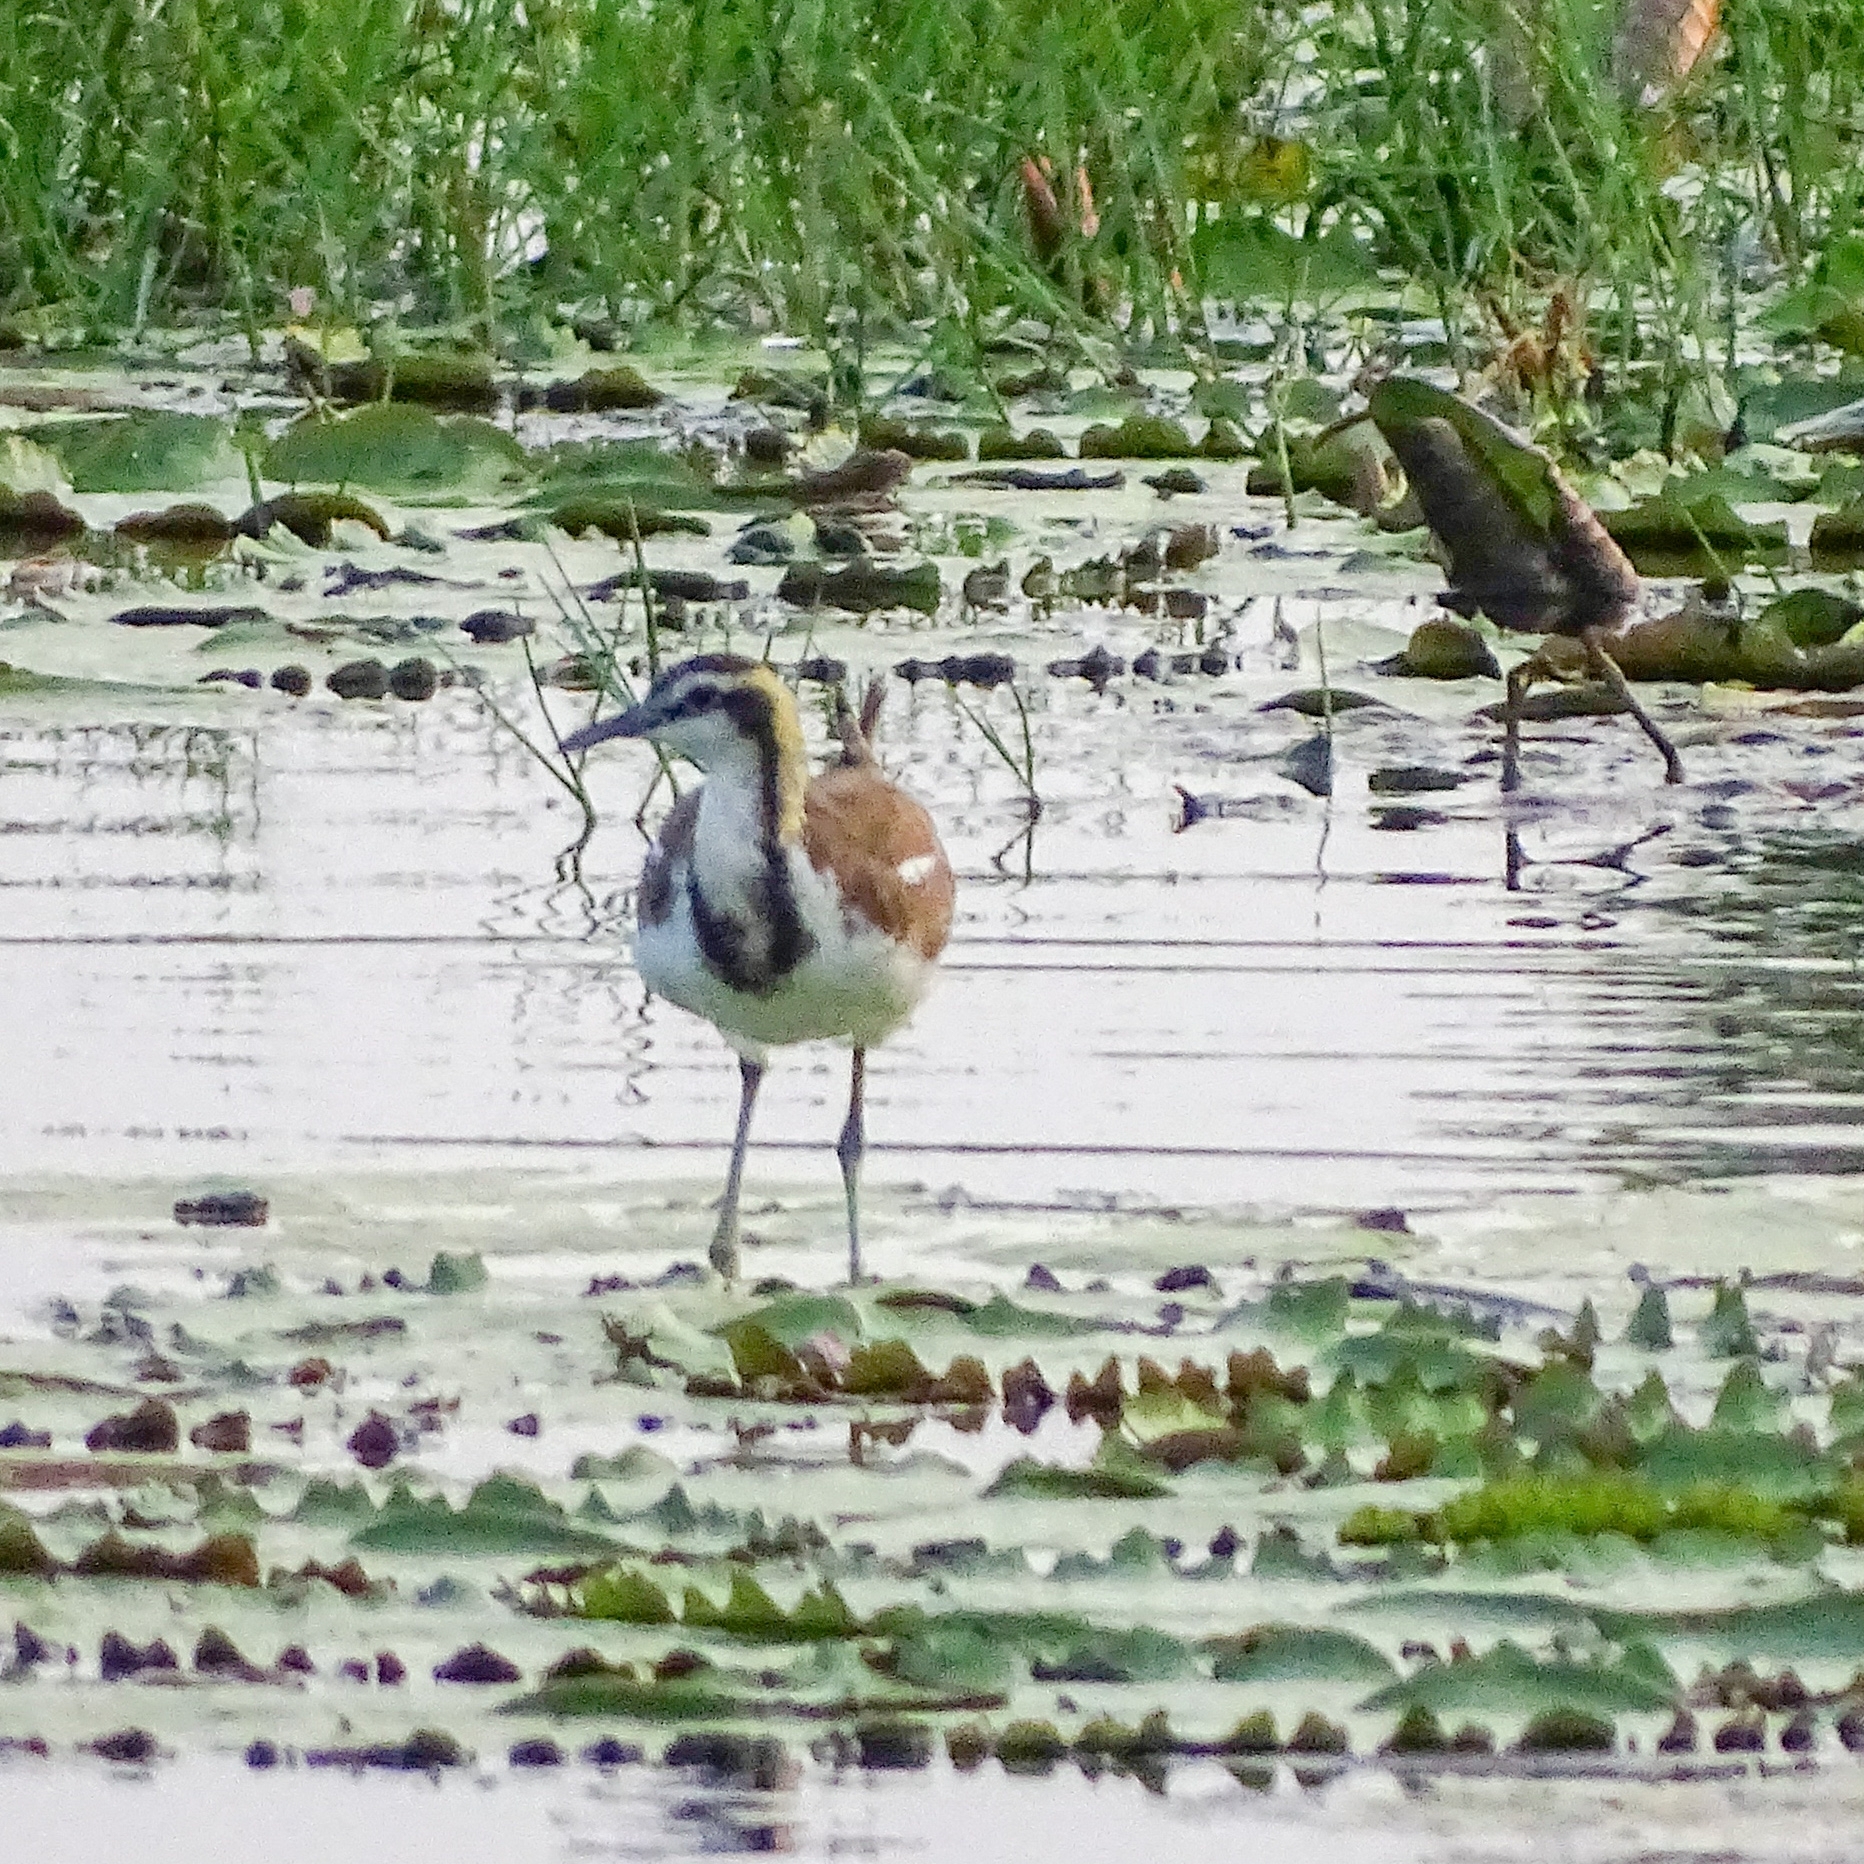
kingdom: Animalia
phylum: Chordata
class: Aves
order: Charadriiformes
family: Jacanidae
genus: Hydrophasianus
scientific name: Hydrophasianus chirurgus
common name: Pheasant-tailed jacana
